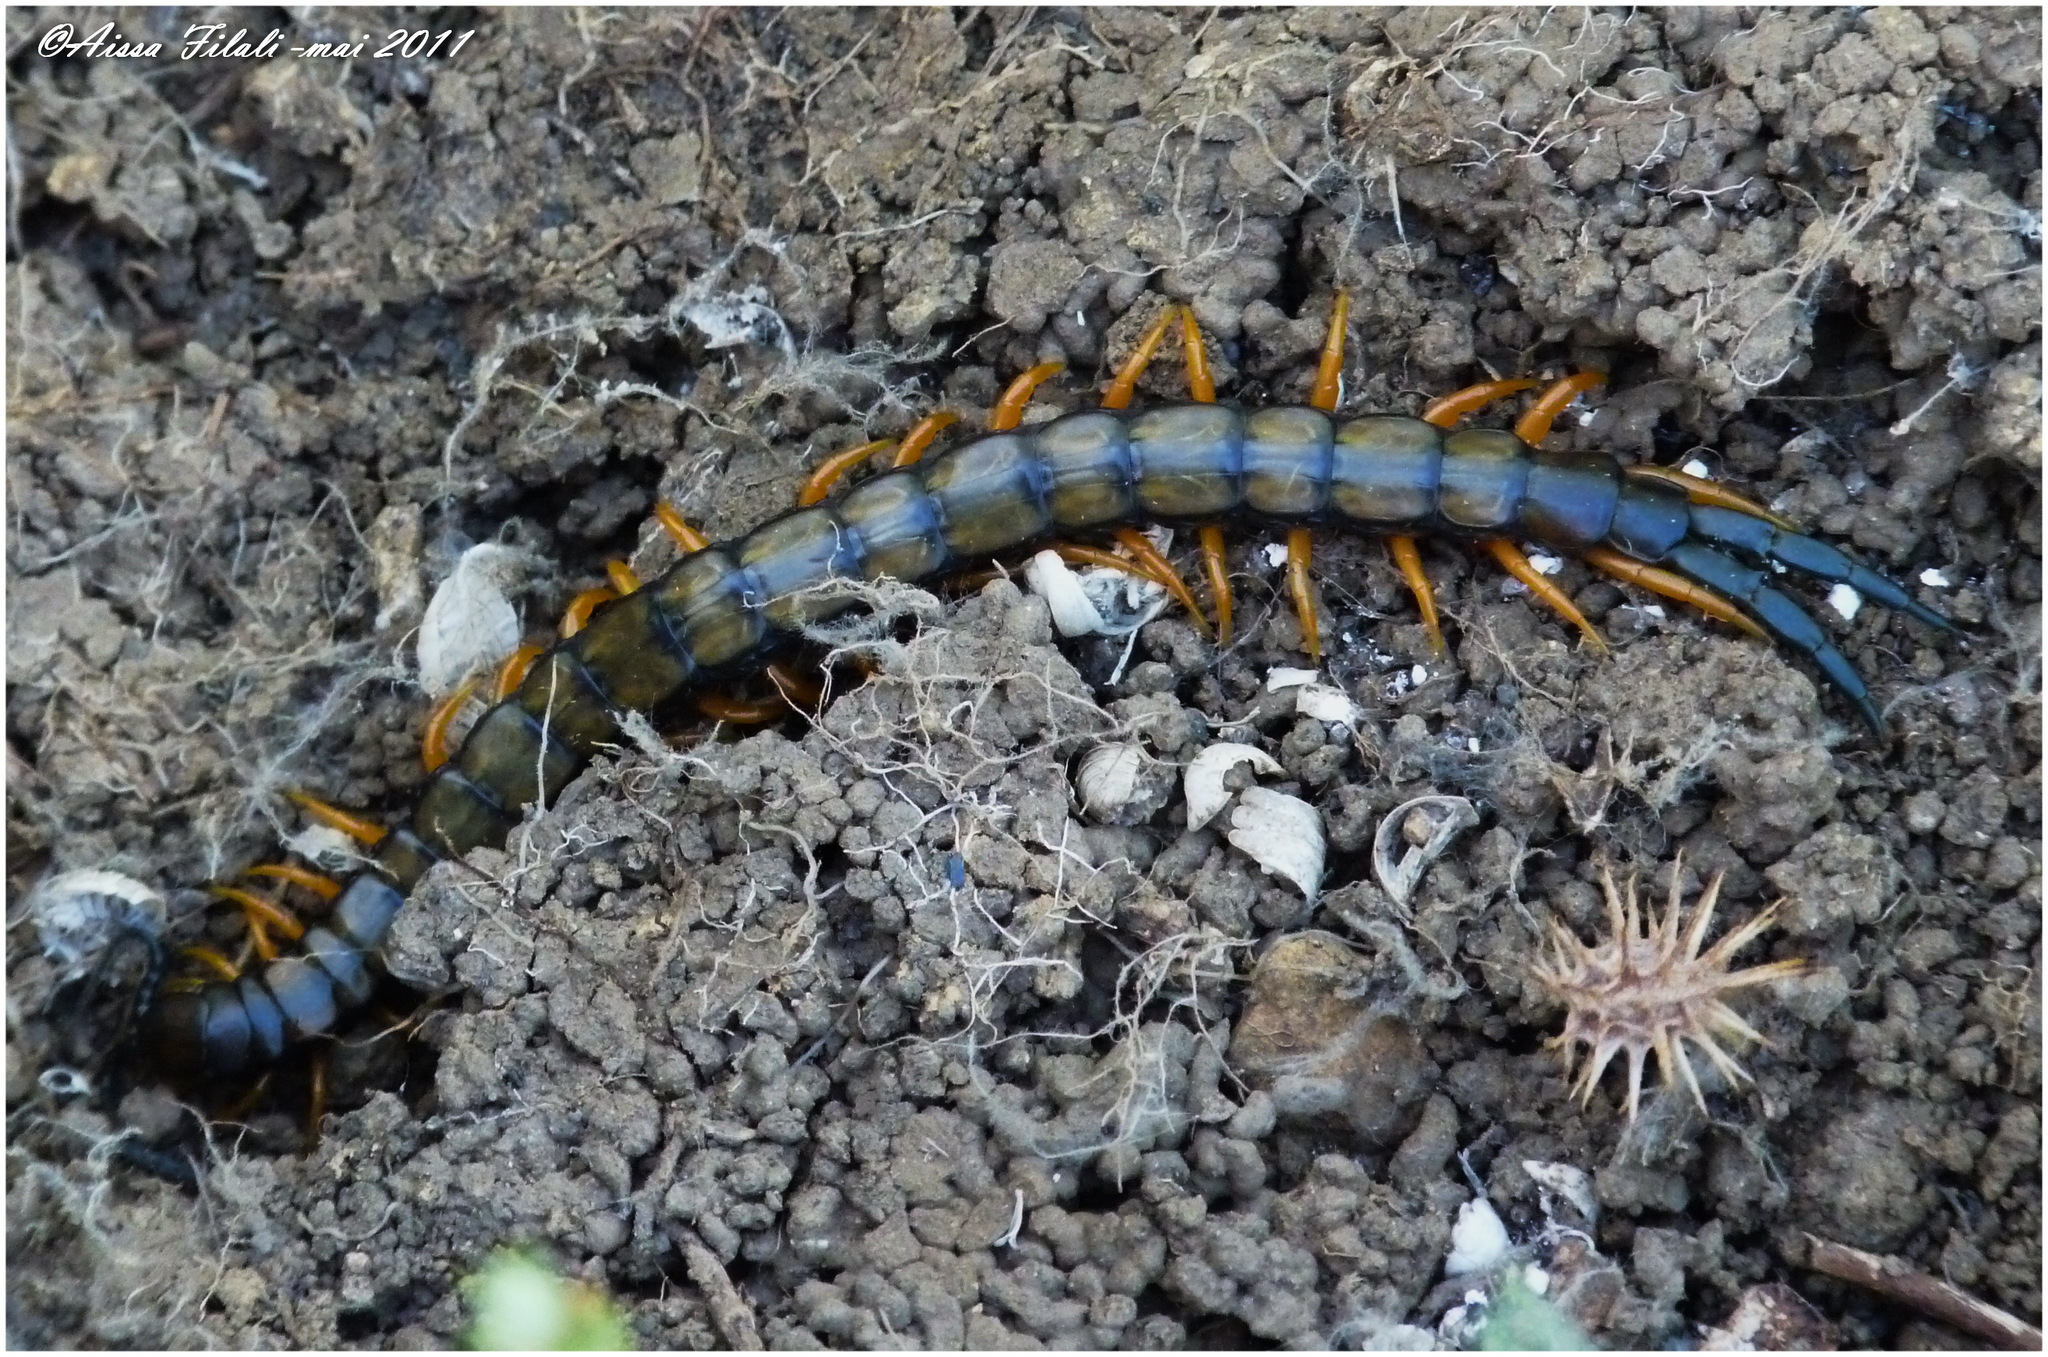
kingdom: Animalia
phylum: Arthropoda
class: Chilopoda
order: Scolopendromorpha
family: Scolopendridae
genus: Scolopendra
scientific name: Scolopendra cingulata
